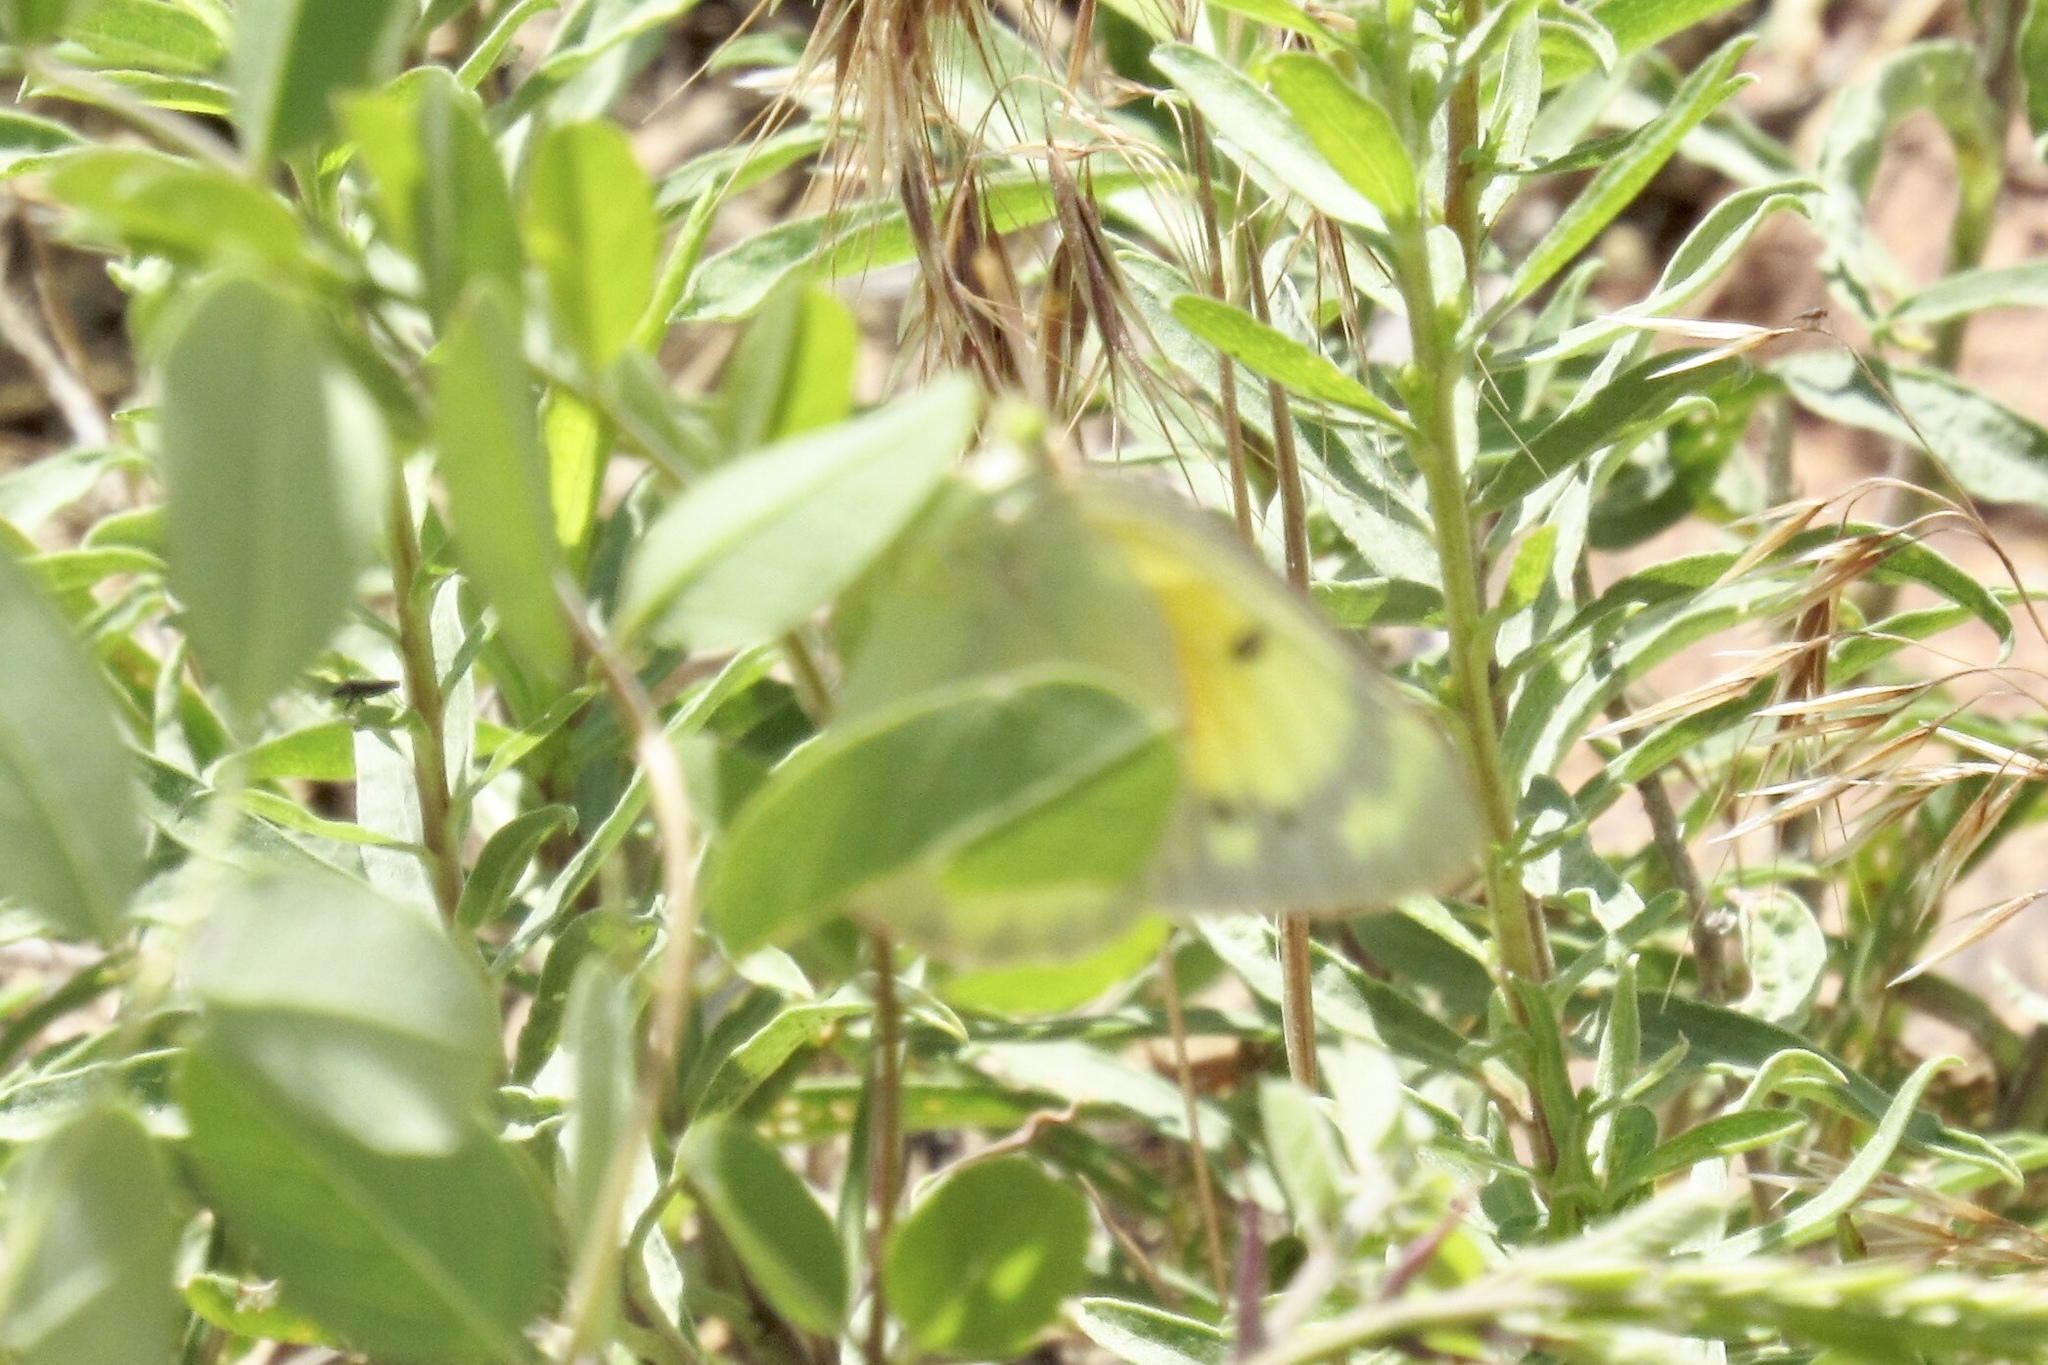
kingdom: Animalia
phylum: Arthropoda
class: Insecta
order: Lepidoptera
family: Pieridae
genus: Colias
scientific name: Colias eurytheme
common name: Alfalfa butterfly
